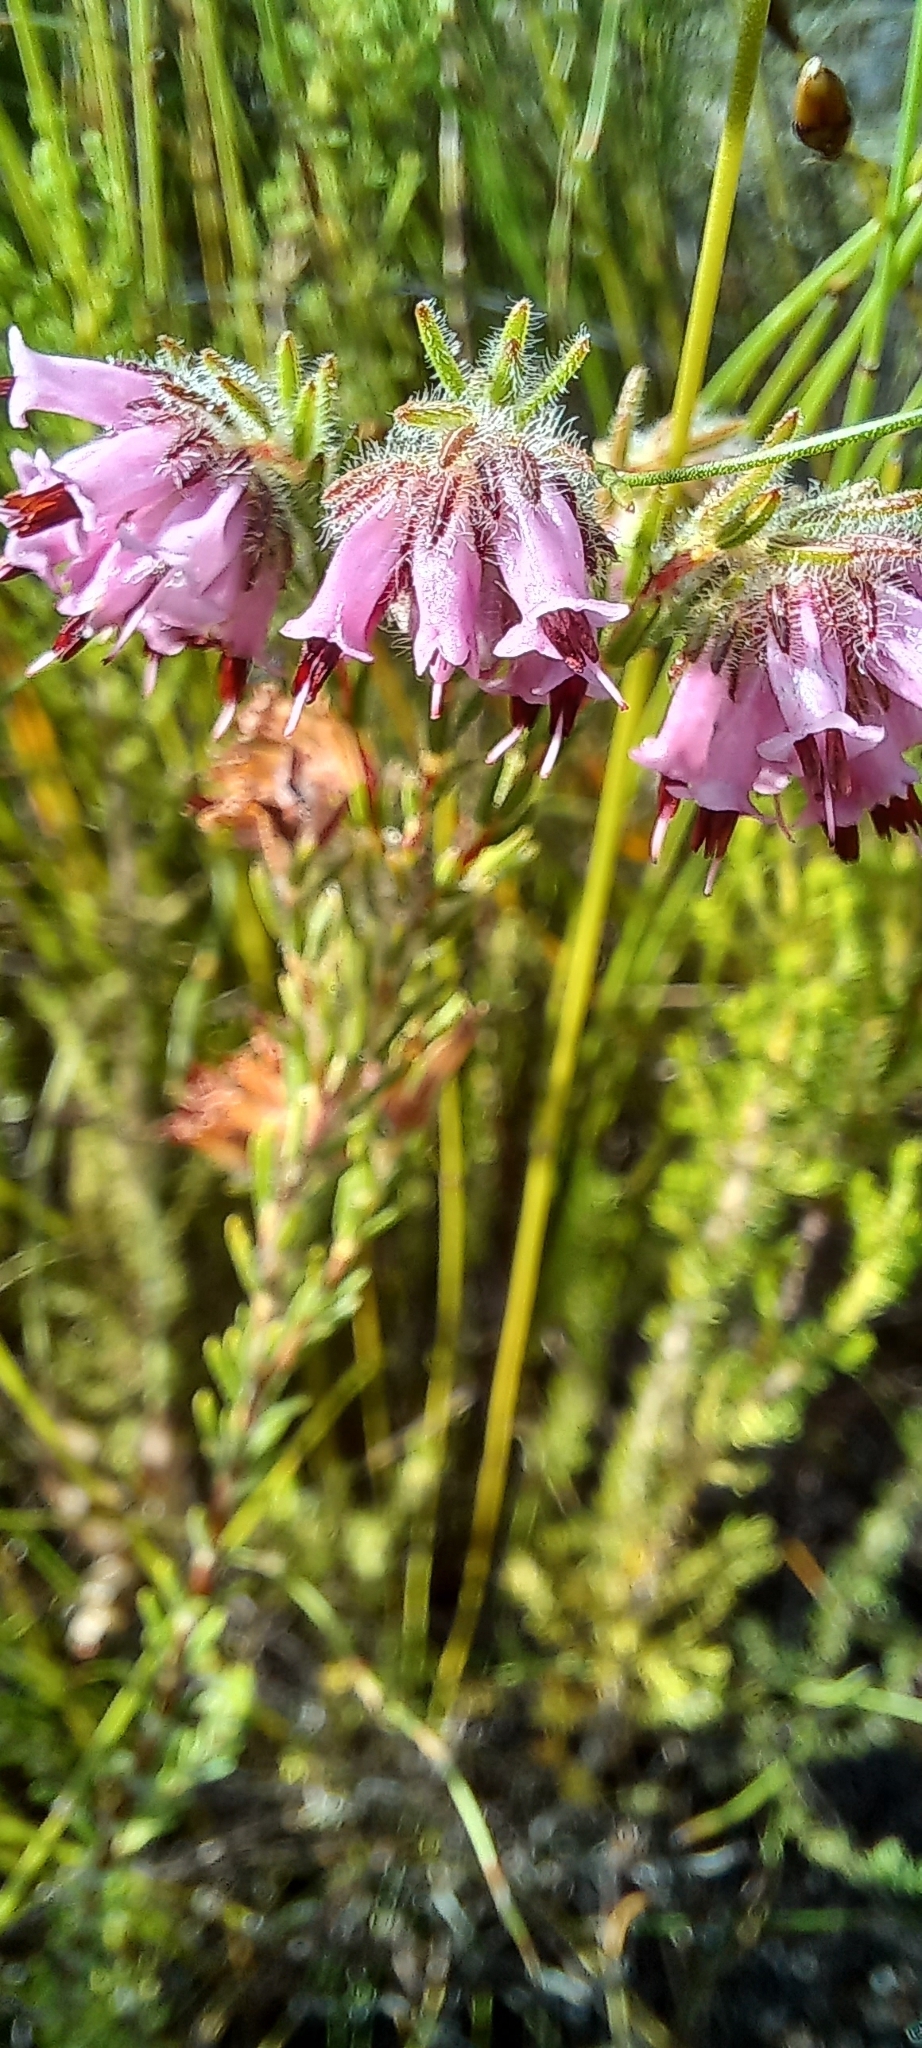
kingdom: Plantae
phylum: Tracheophyta
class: Magnoliopsida
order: Ericales
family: Ericaceae
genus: Erica
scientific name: Erica barbigeroides
